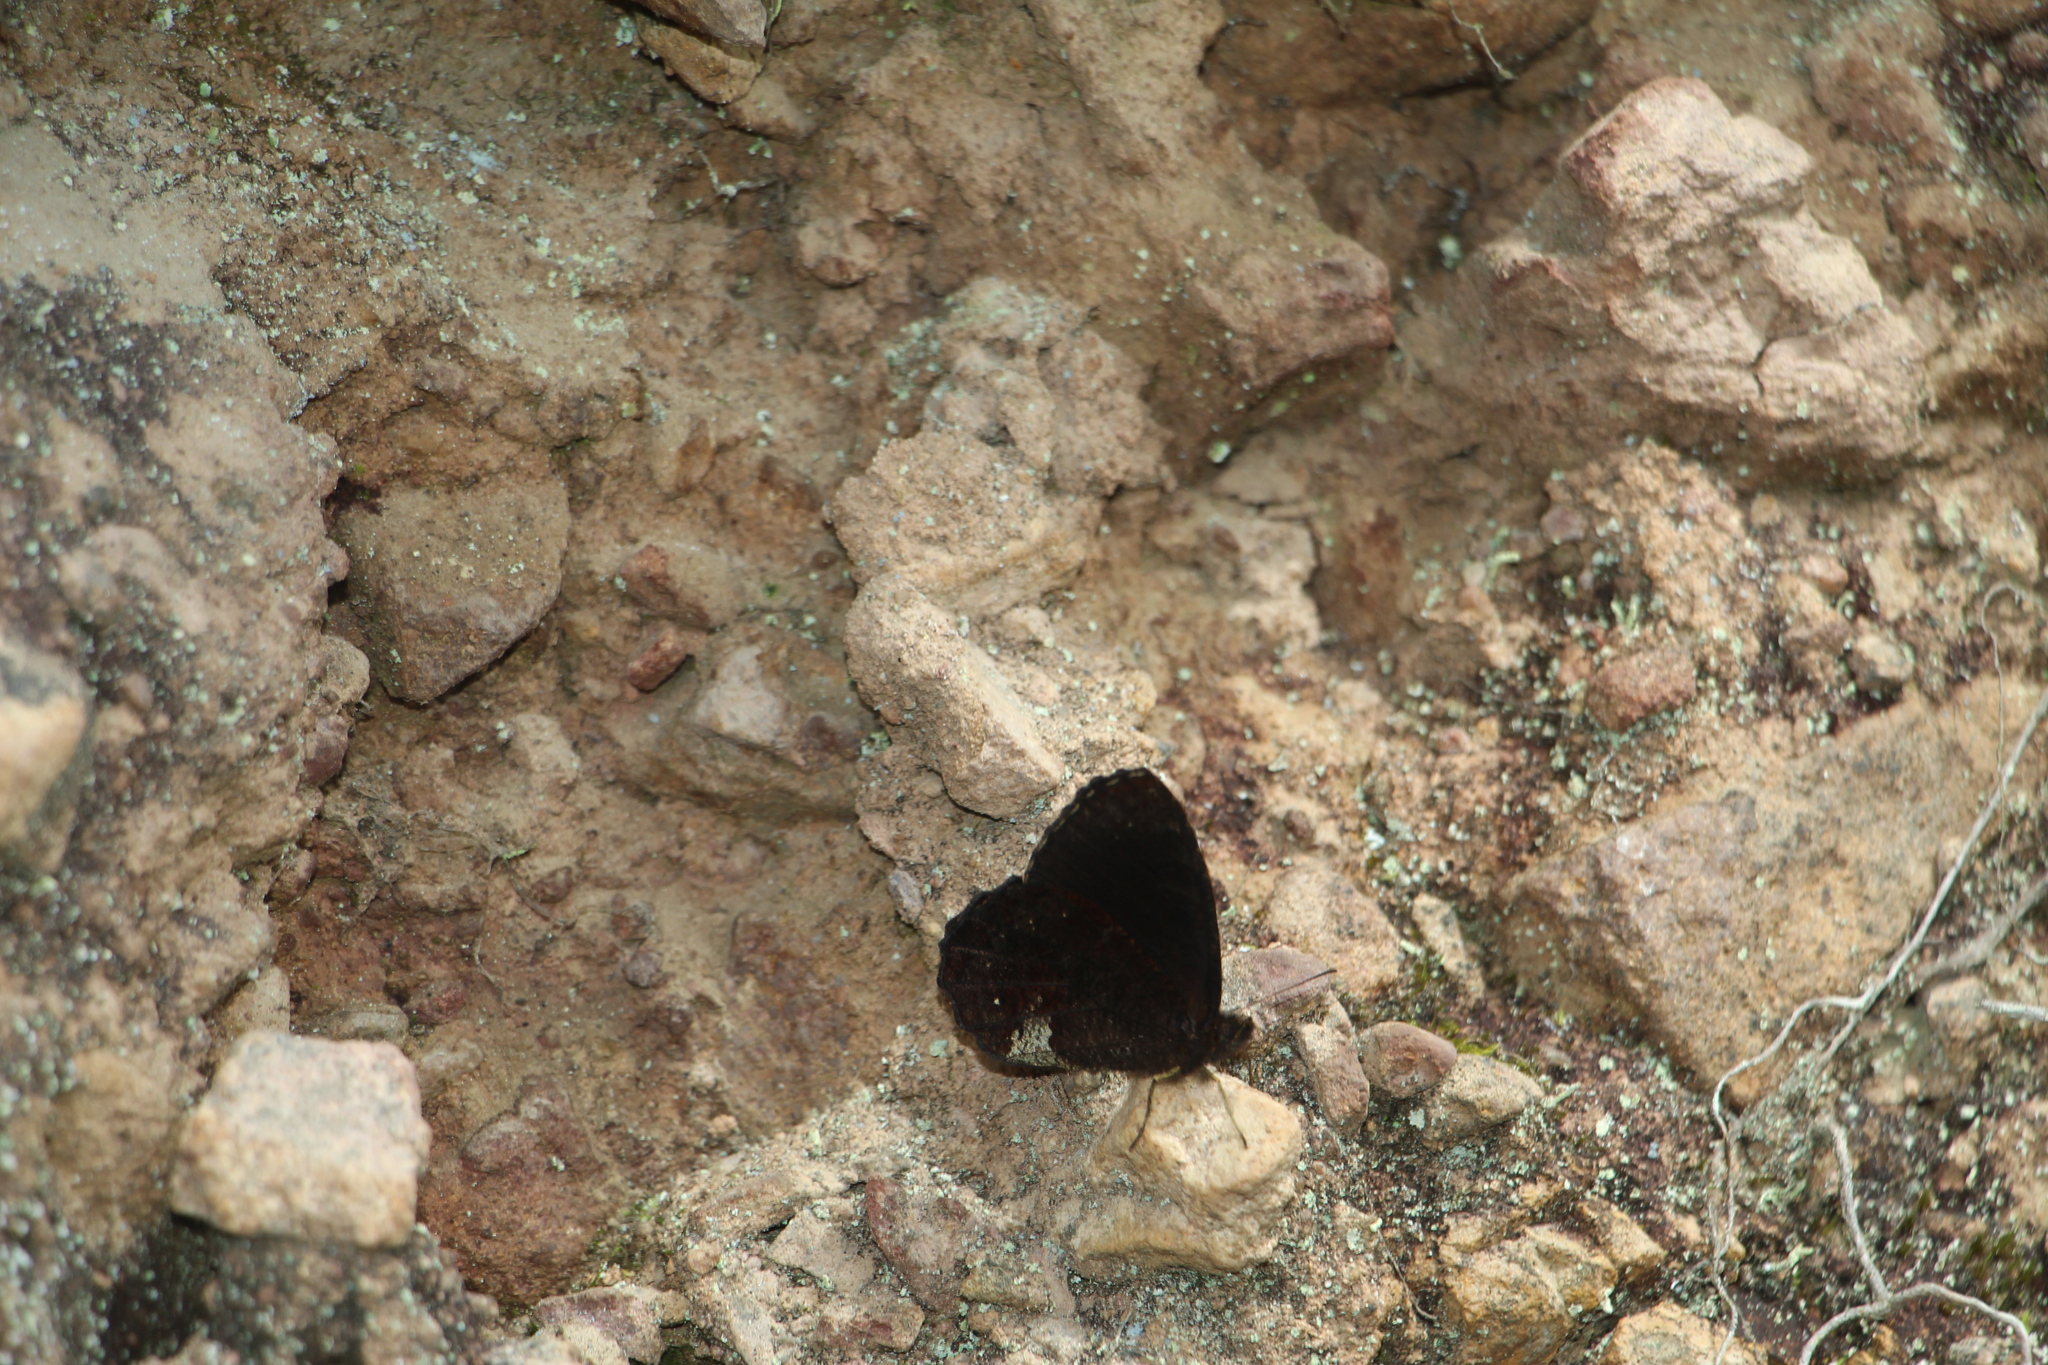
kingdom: Animalia
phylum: Arthropoda
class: Insecta
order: Lepidoptera
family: Nymphalidae
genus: Pedaliodes
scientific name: Pedaliodes prytanis
